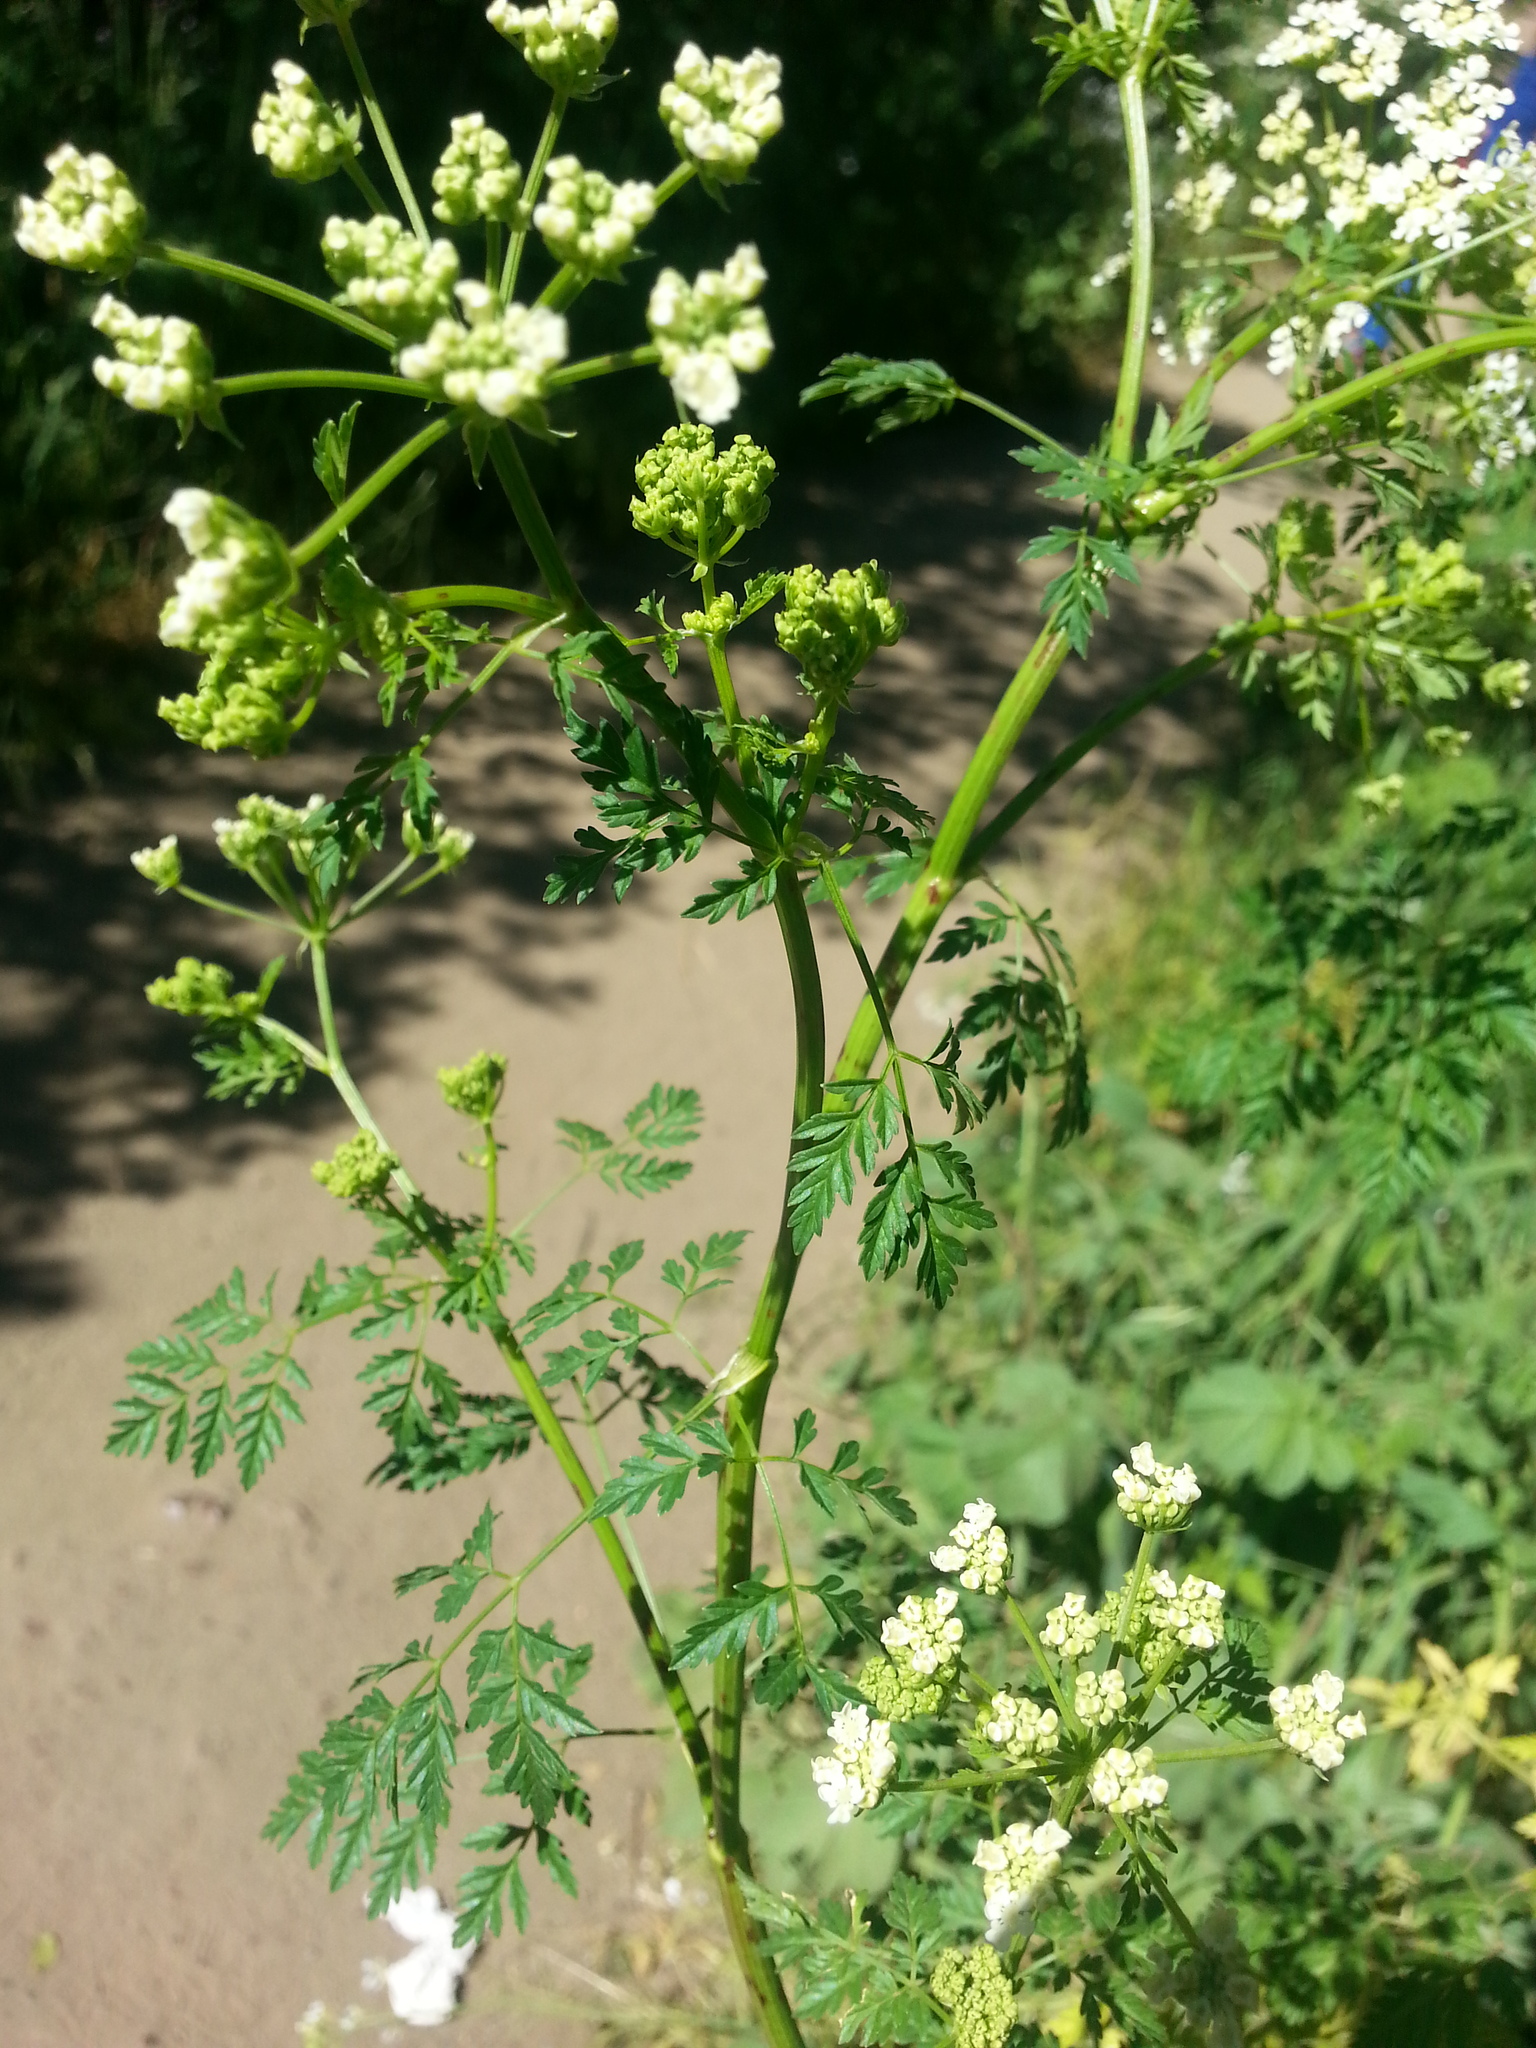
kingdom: Plantae
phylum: Tracheophyta
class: Magnoliopsida
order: Apiales
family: Apiaceae
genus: Conium
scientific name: Conium maculatum
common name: Hemlock
